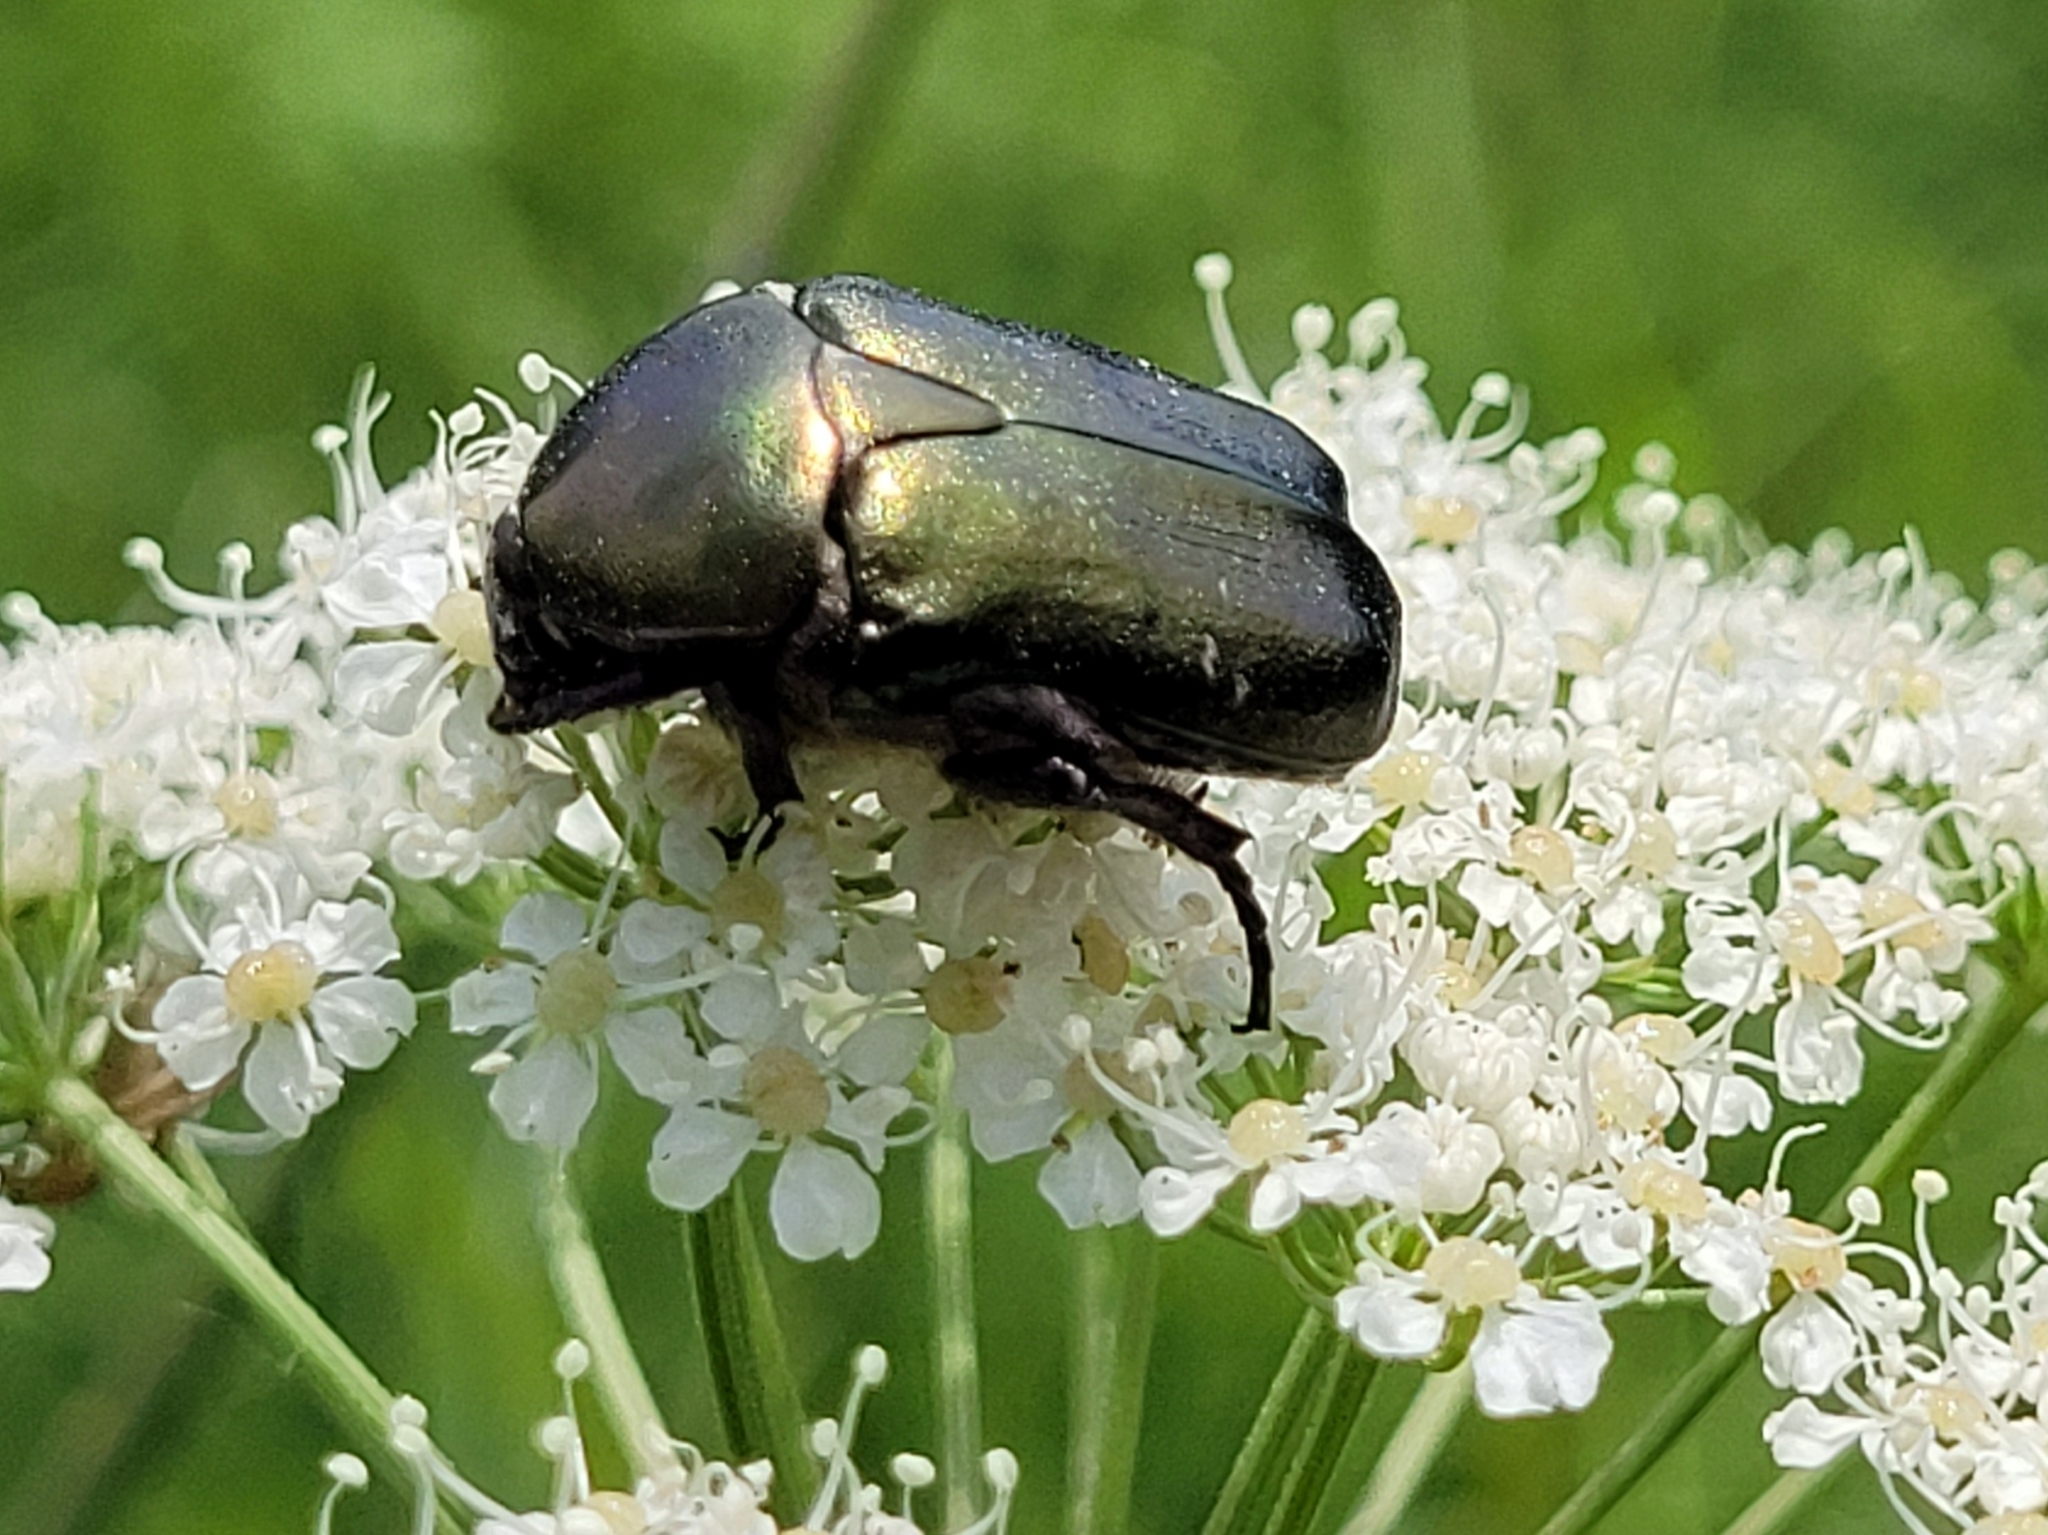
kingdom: Animalia
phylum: Arthropoda
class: Insecta
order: Coleoptera
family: Scarabaeidae
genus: Protaetia
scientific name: Protaetia cuprea
